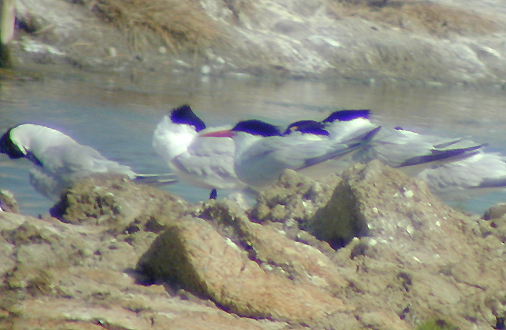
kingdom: Animalia
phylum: Chordata
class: Aves
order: Charadriiformes
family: Laridae
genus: Thalasseus
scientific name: Thalasseus elegans
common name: Elegant tern
